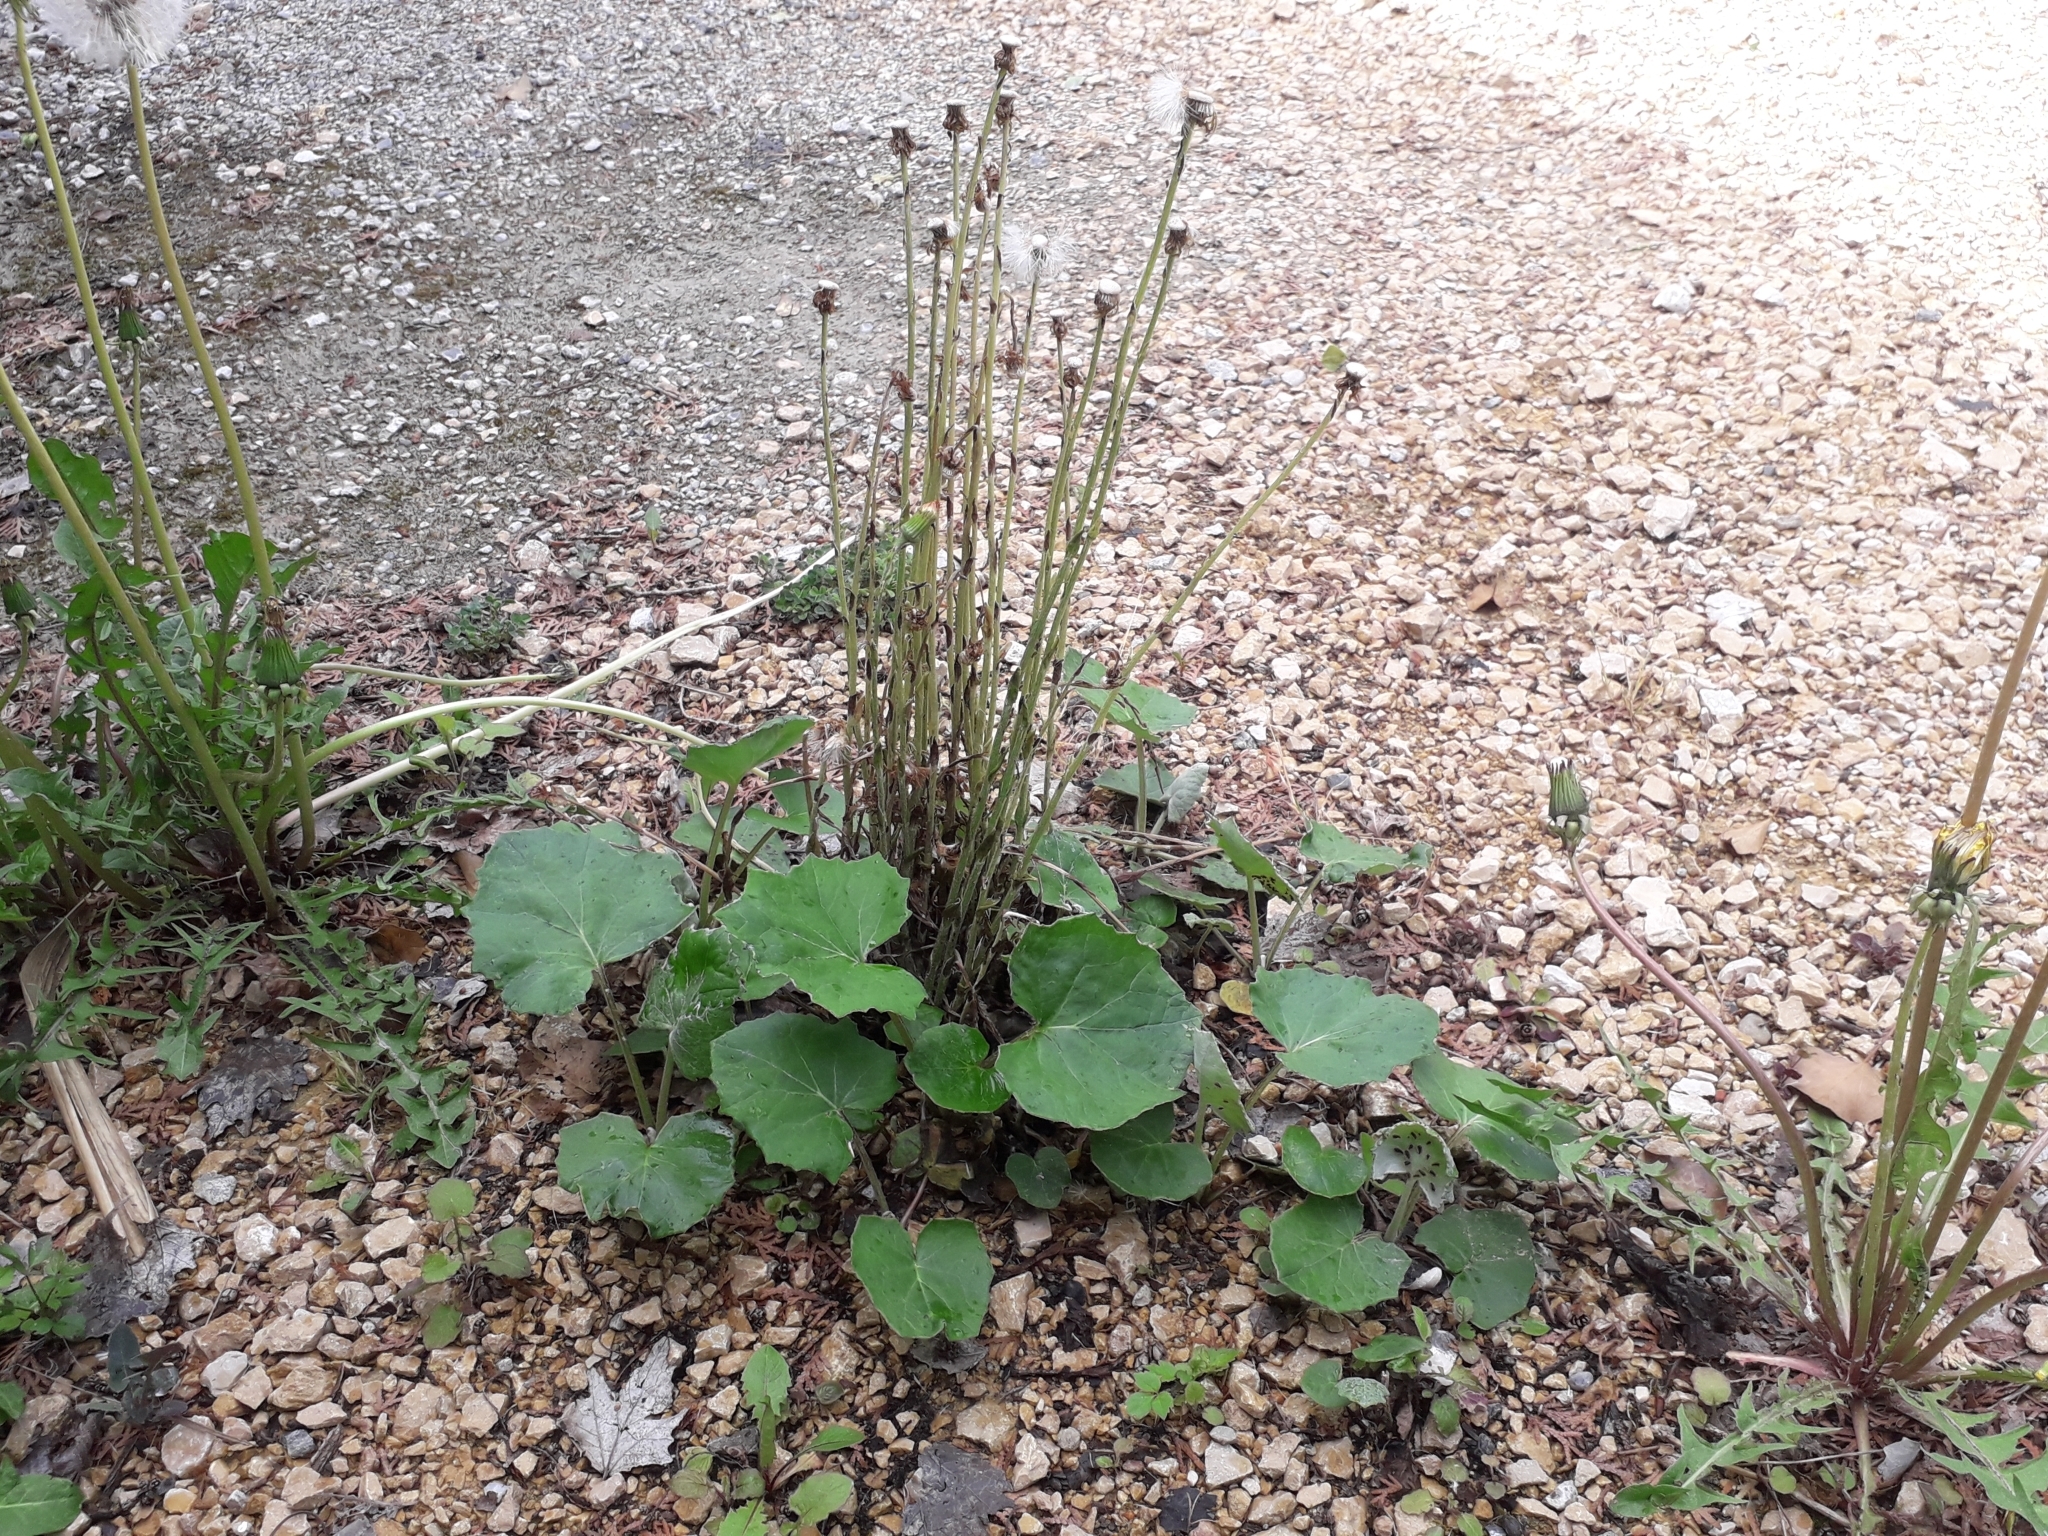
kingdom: Plantae
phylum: Tracheophyta
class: Magnoliopsida
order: Asterales
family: Asteraceae
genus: Tussilago
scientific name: Tussilago farfara
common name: Coltsfoot
